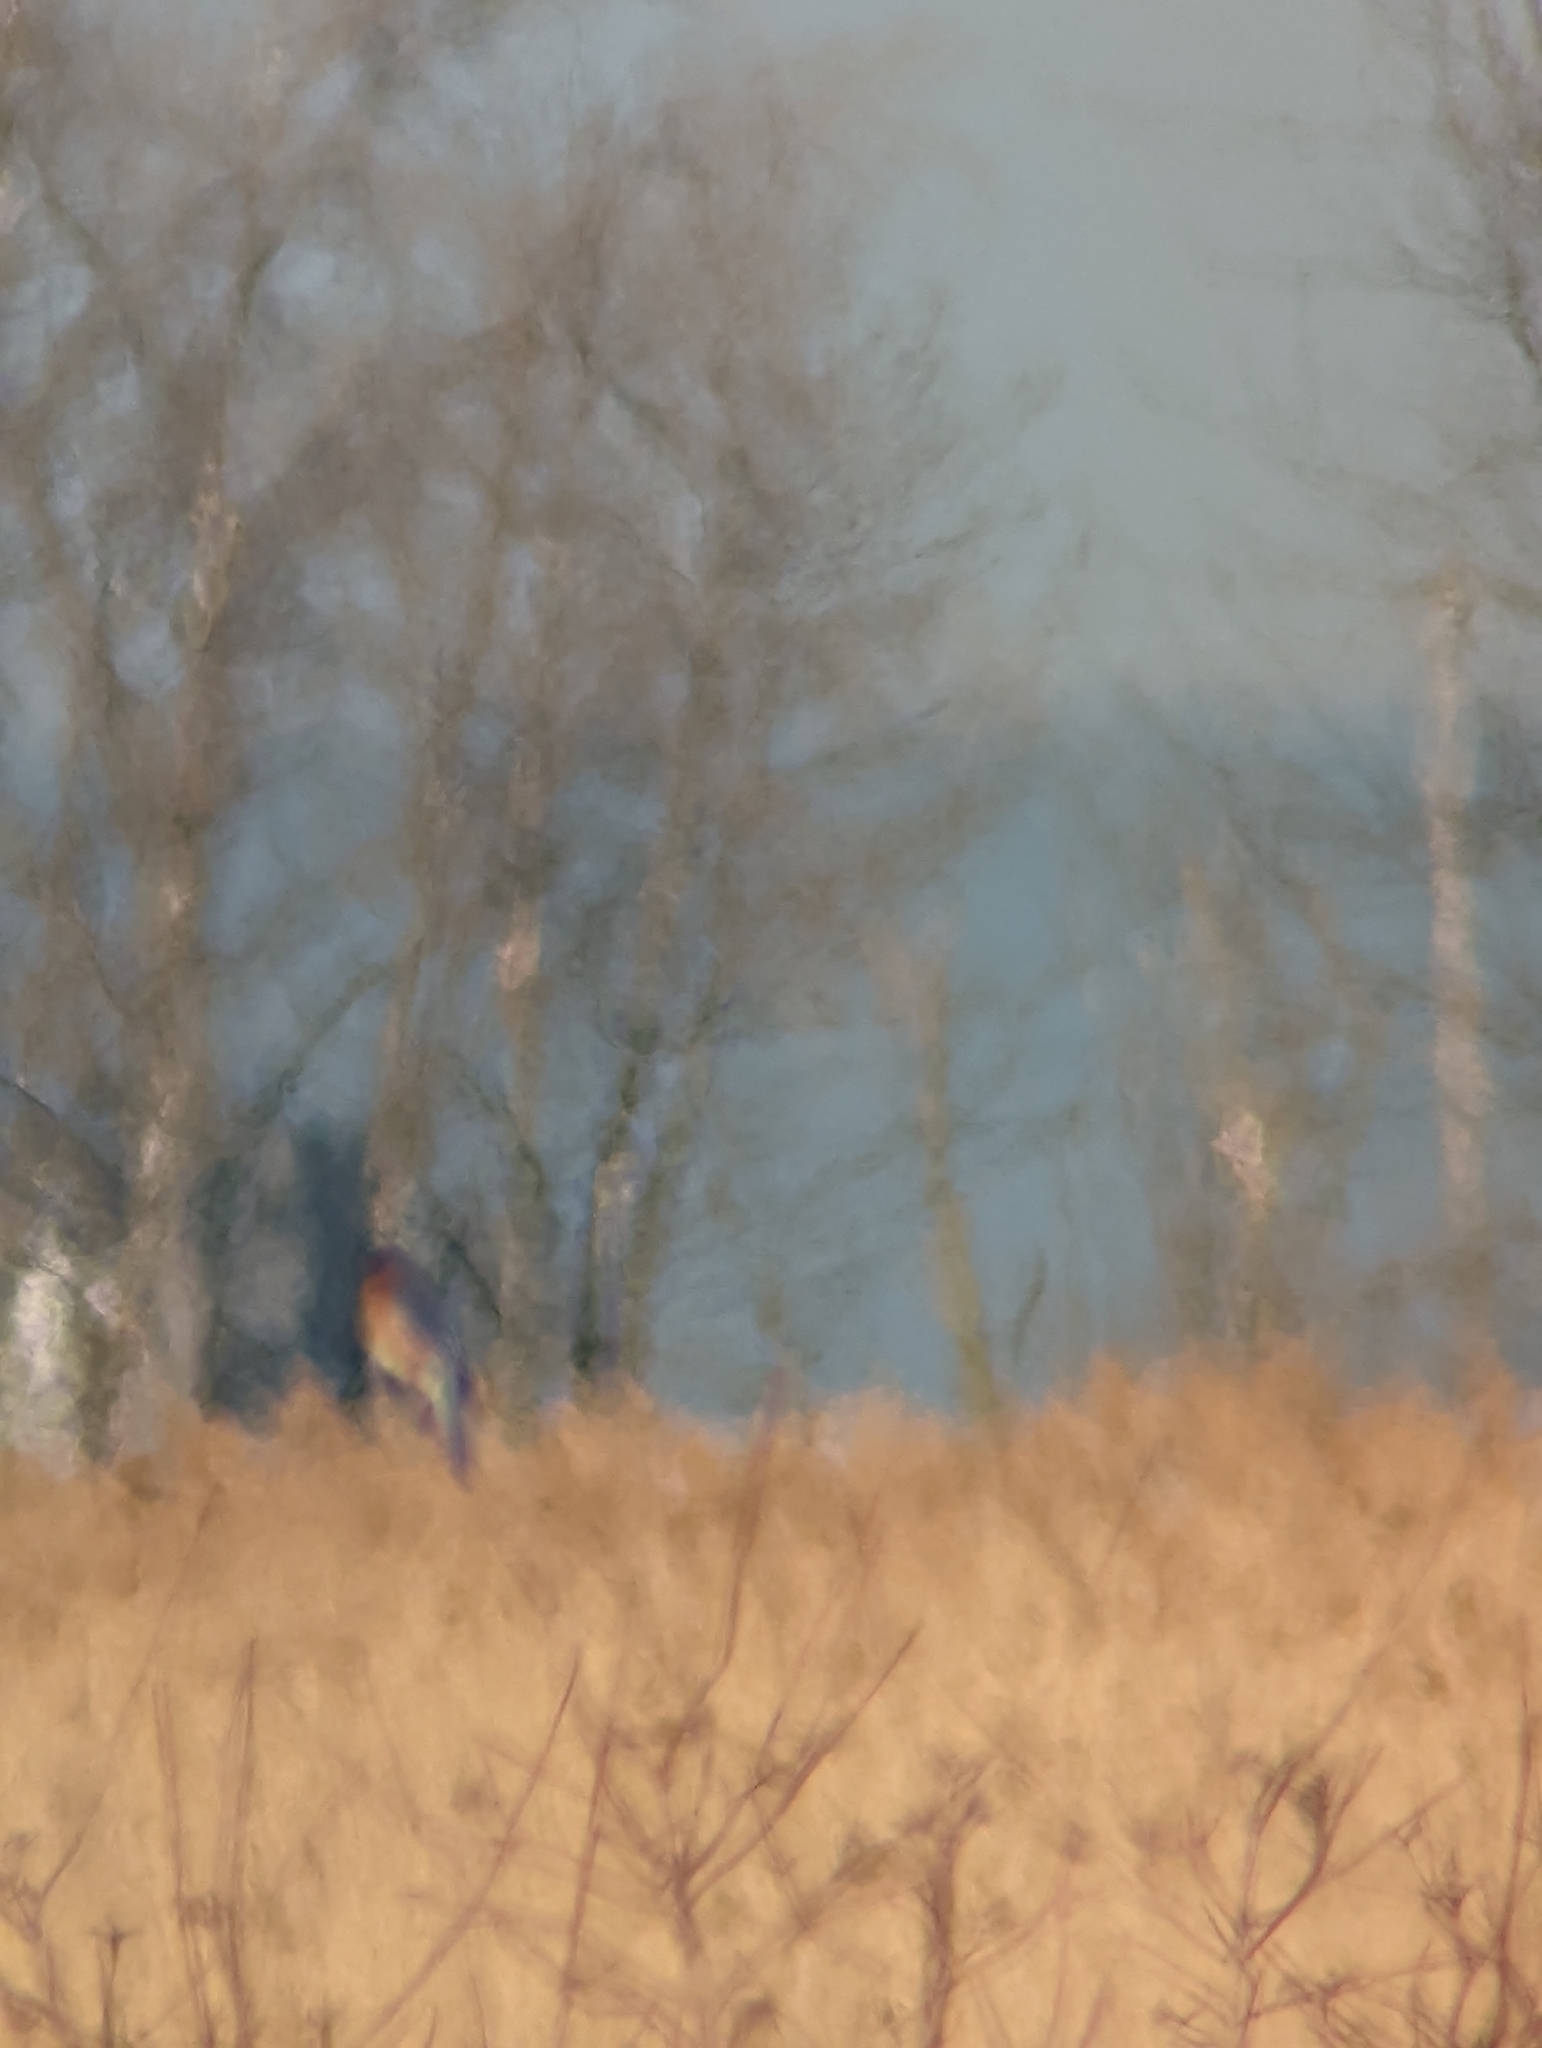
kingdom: Animalia
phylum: Chordata
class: Aves
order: Passeriformes
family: Turdidae
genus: Sialia
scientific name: Sialia sialis
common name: Eastern bluebird
